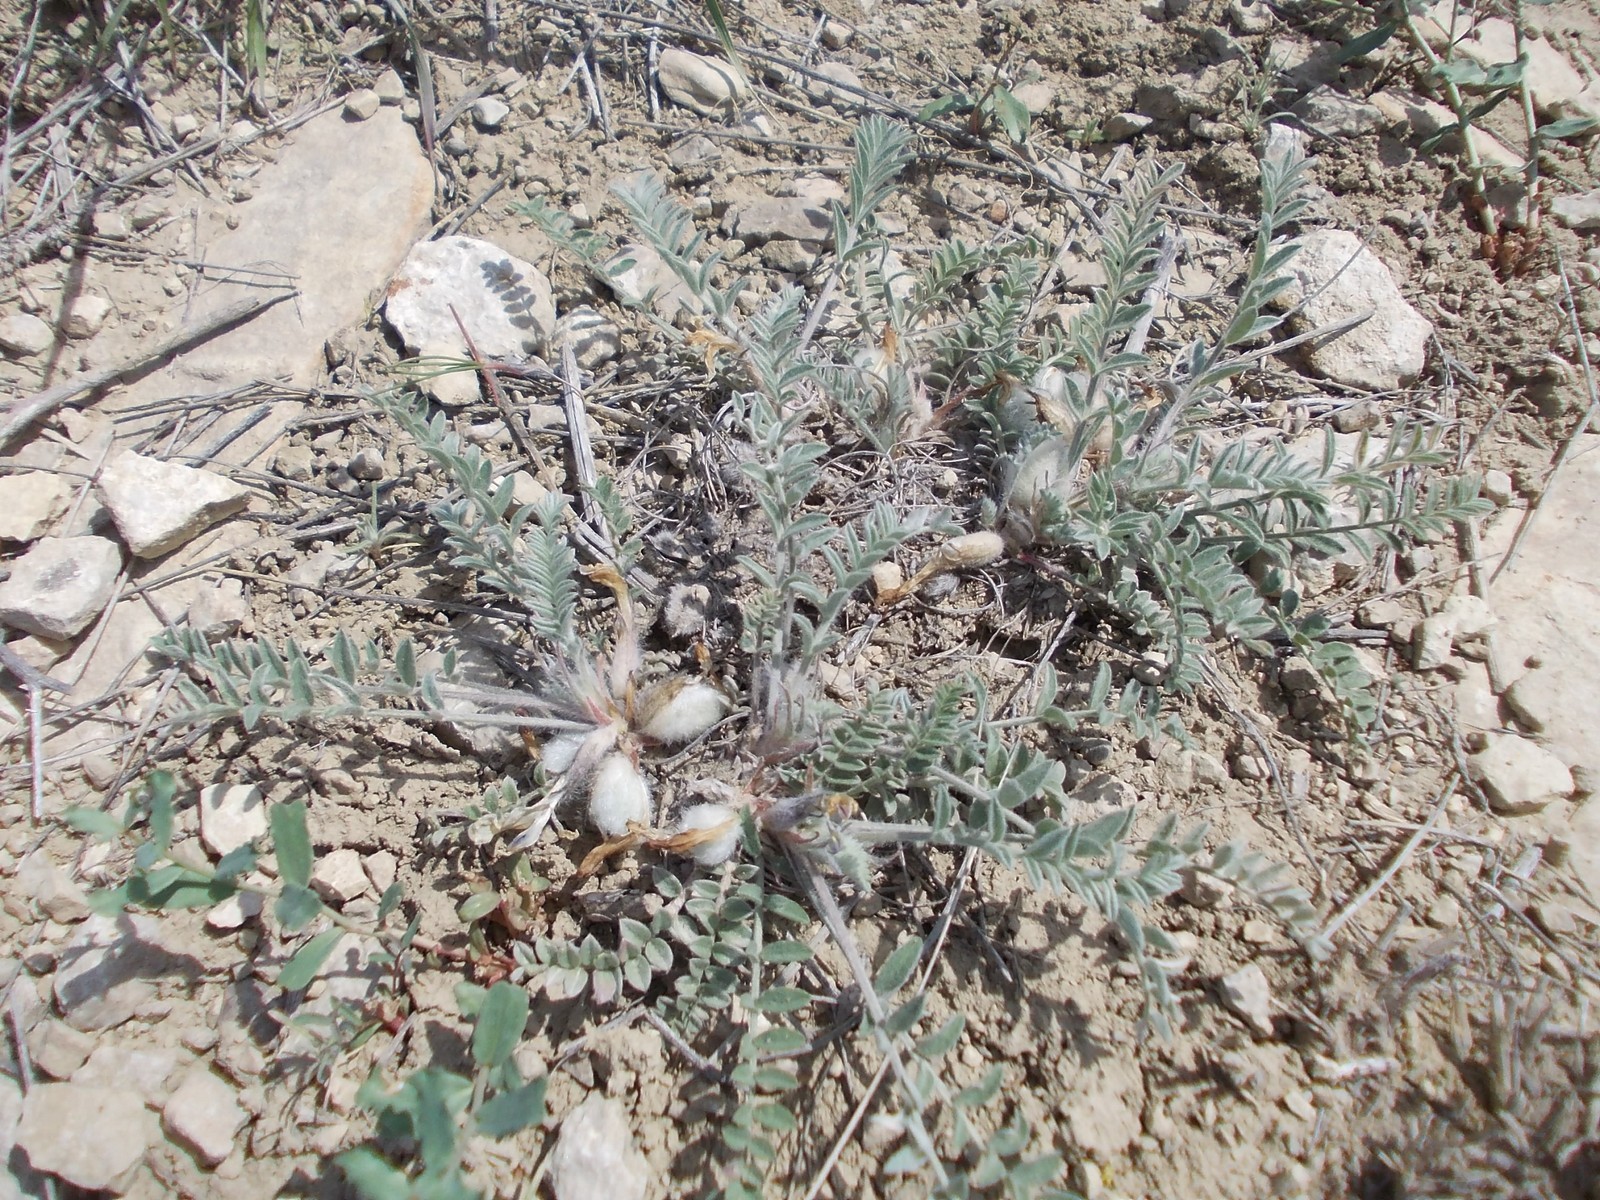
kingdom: Plantae
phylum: Tracheophyta
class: Magnoliopsida
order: Fabales
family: Fabaceae
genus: Astragalus
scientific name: Astragalus testiculatus
